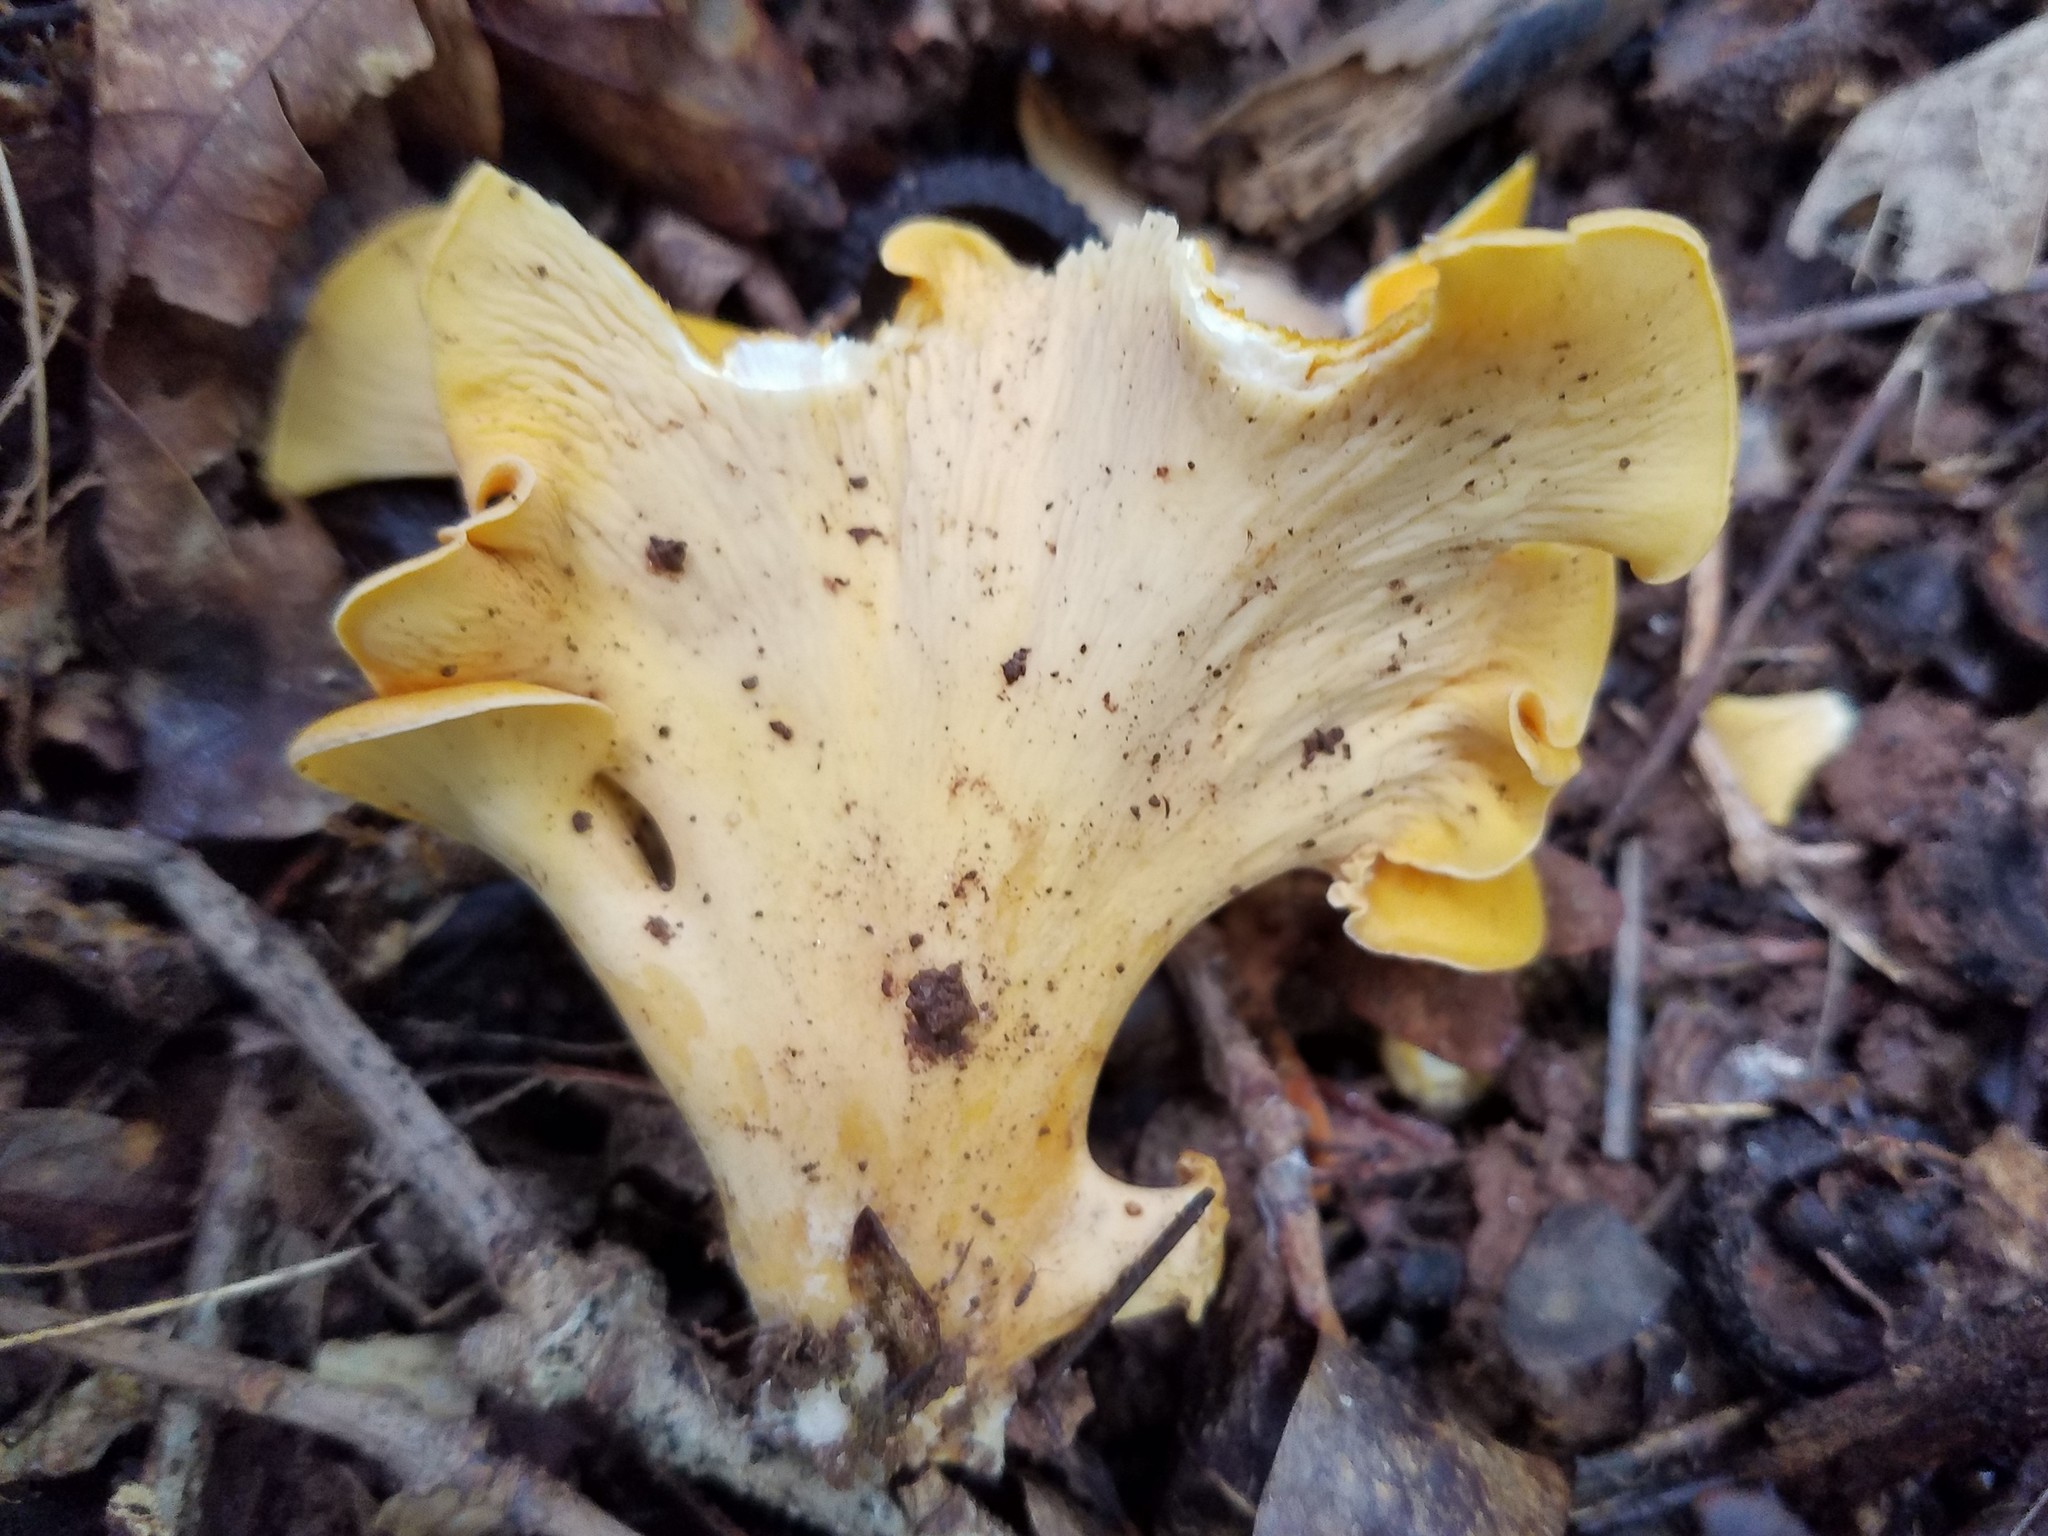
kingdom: Fungi
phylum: Basidiomycota
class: Agaricomycetes
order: Cantharellales
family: Hydnaceae
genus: Cantharellus
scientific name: Cantharellus lateritius
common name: Smooth chanterelle
